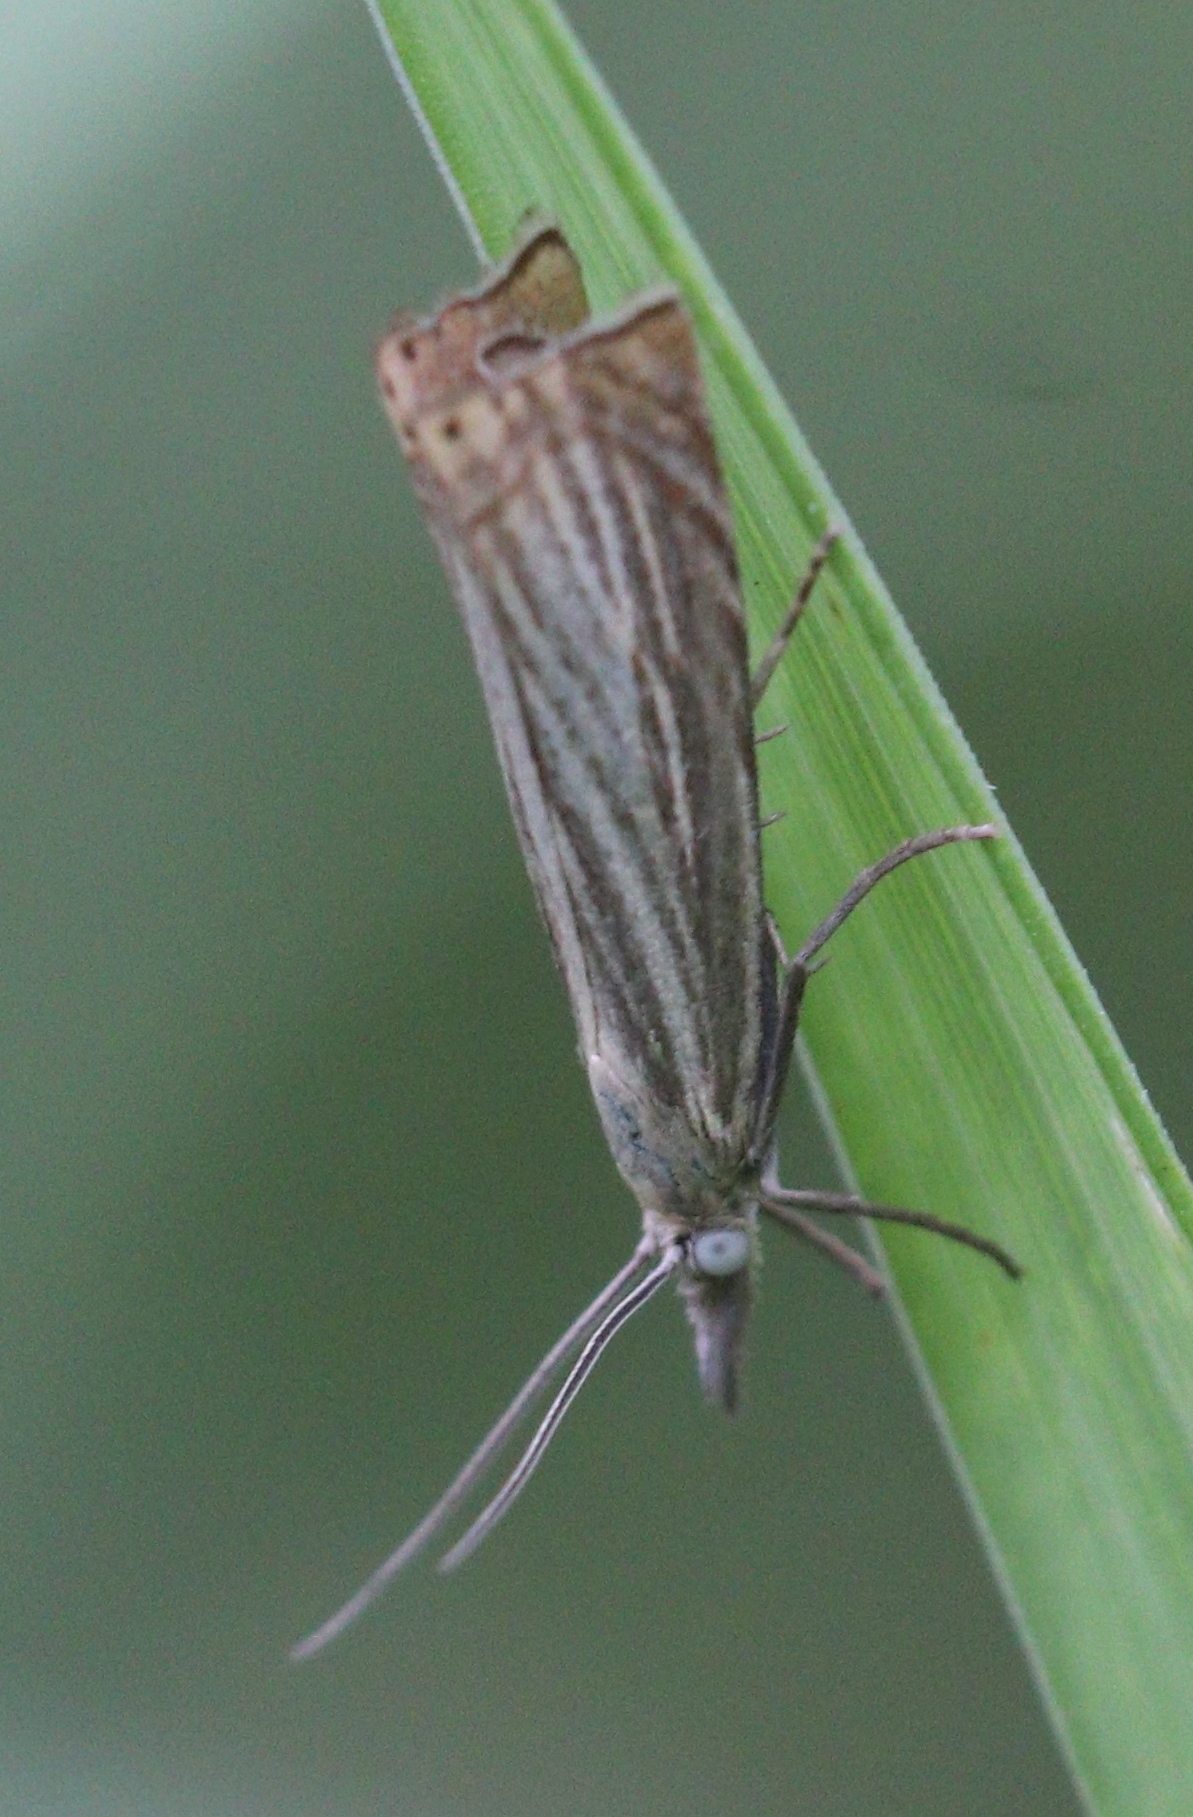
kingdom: Animalia
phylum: Arthropoda
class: Insecta
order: Lepidoptera
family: Crambidae
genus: Chrysoteuchia
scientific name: Chrysoteuchia culmella
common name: Garden grass-veneer
